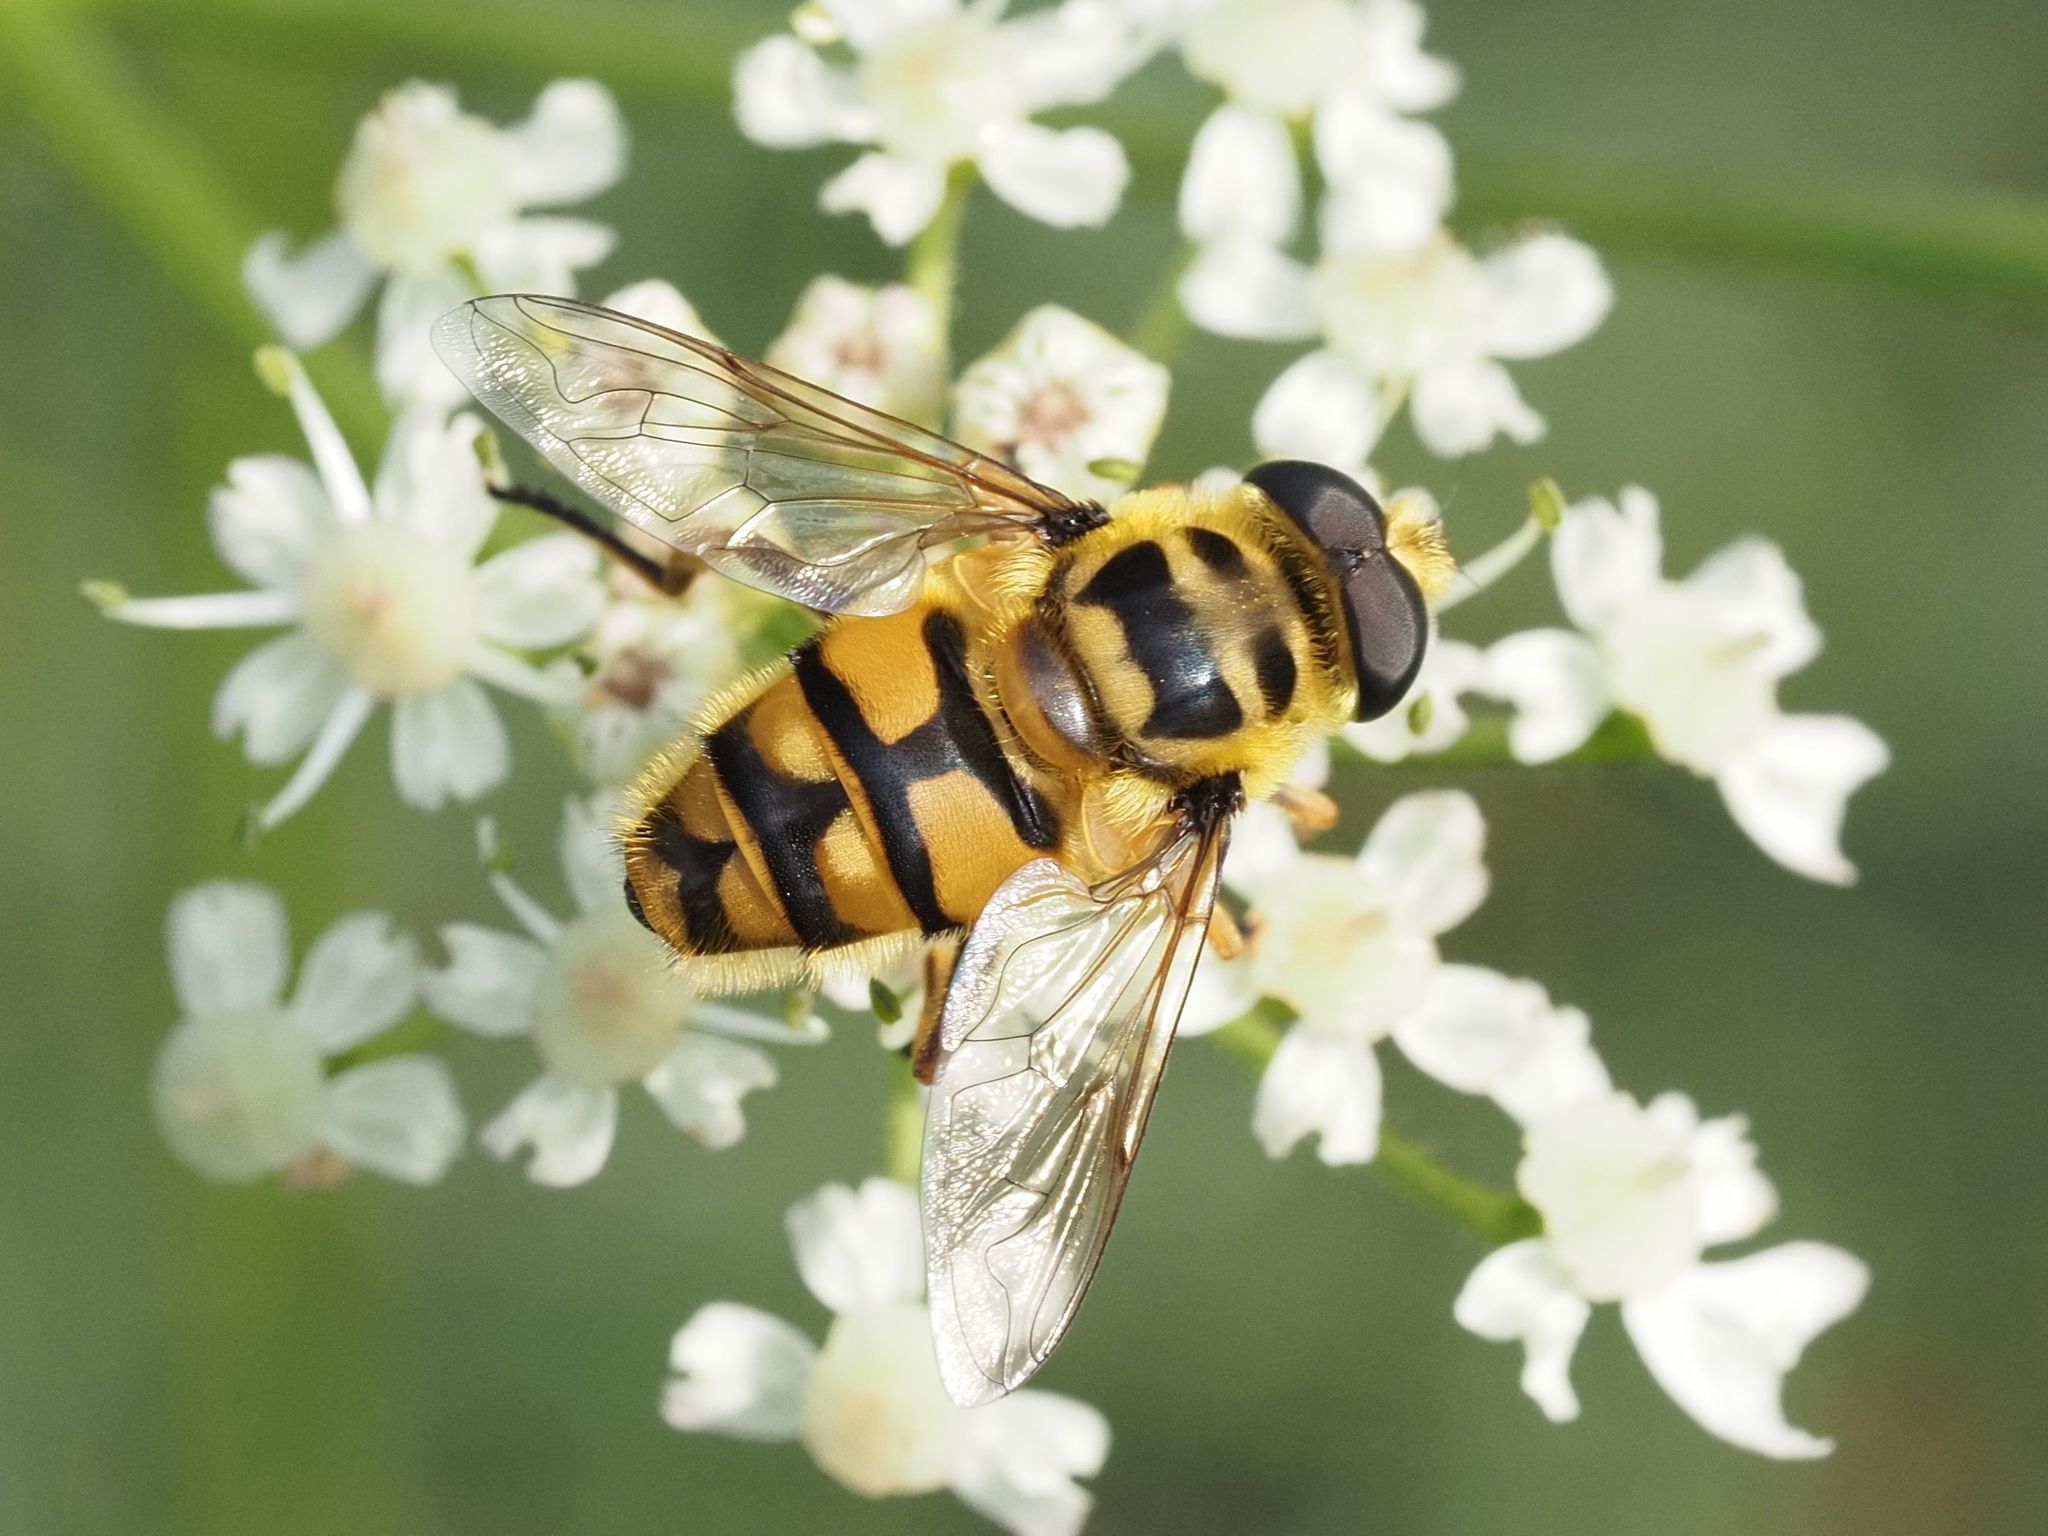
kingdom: Animalia
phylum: Arthropoda
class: Insecta
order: Diptera
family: Syrphidae
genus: Myathropa
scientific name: Myathropa florea
